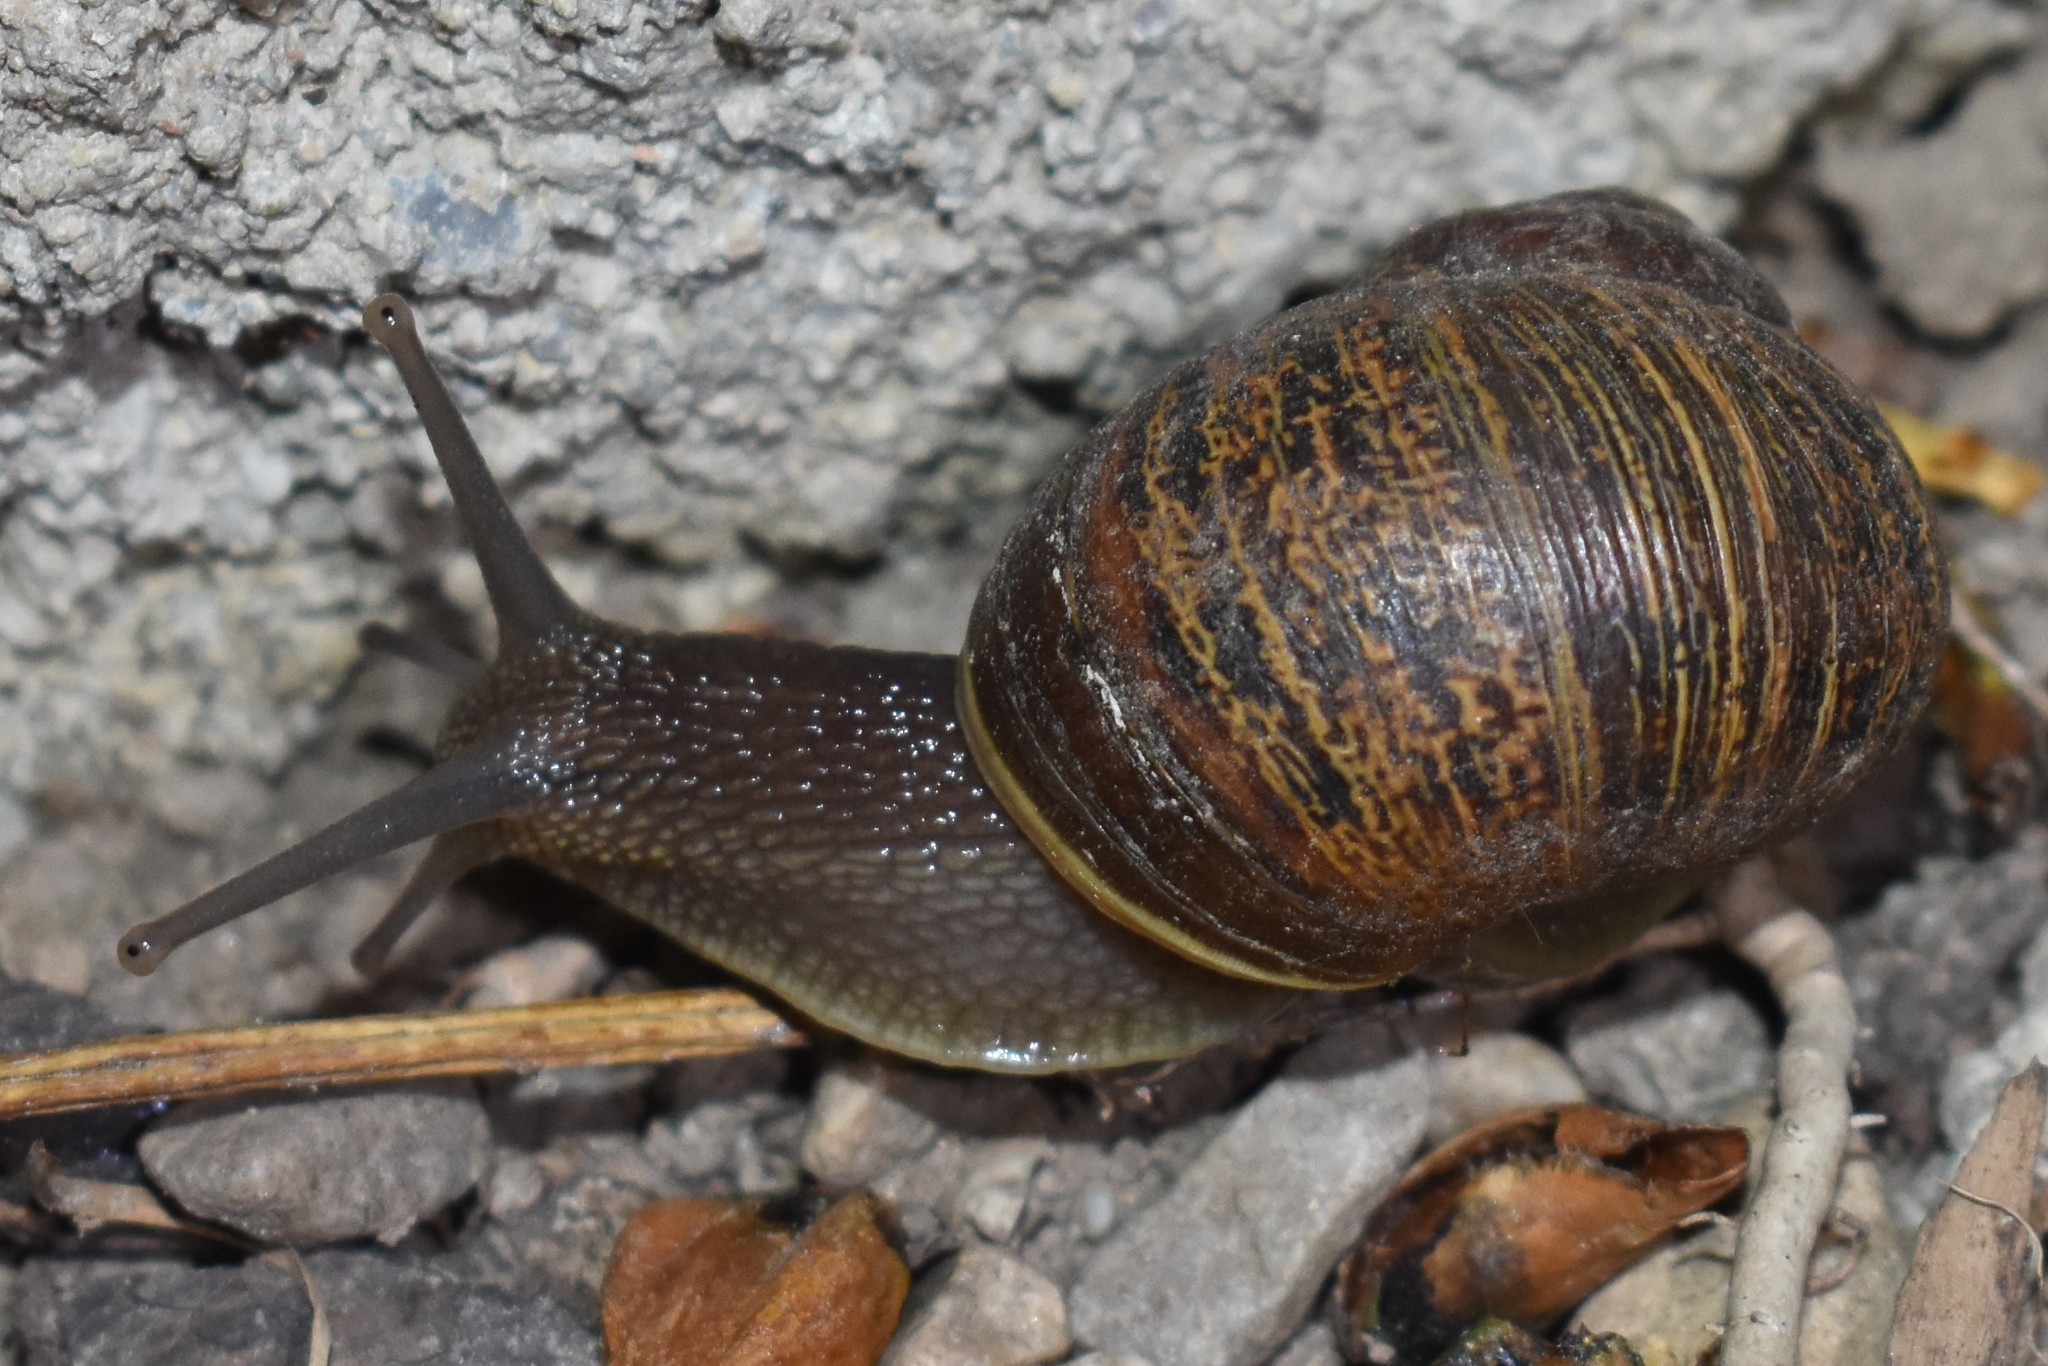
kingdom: Animalia
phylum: Mollusca
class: Gastropoda
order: Stylommatophora
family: Helicidae
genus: Cornu
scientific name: Cornu aspersum
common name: Brown garden snail
